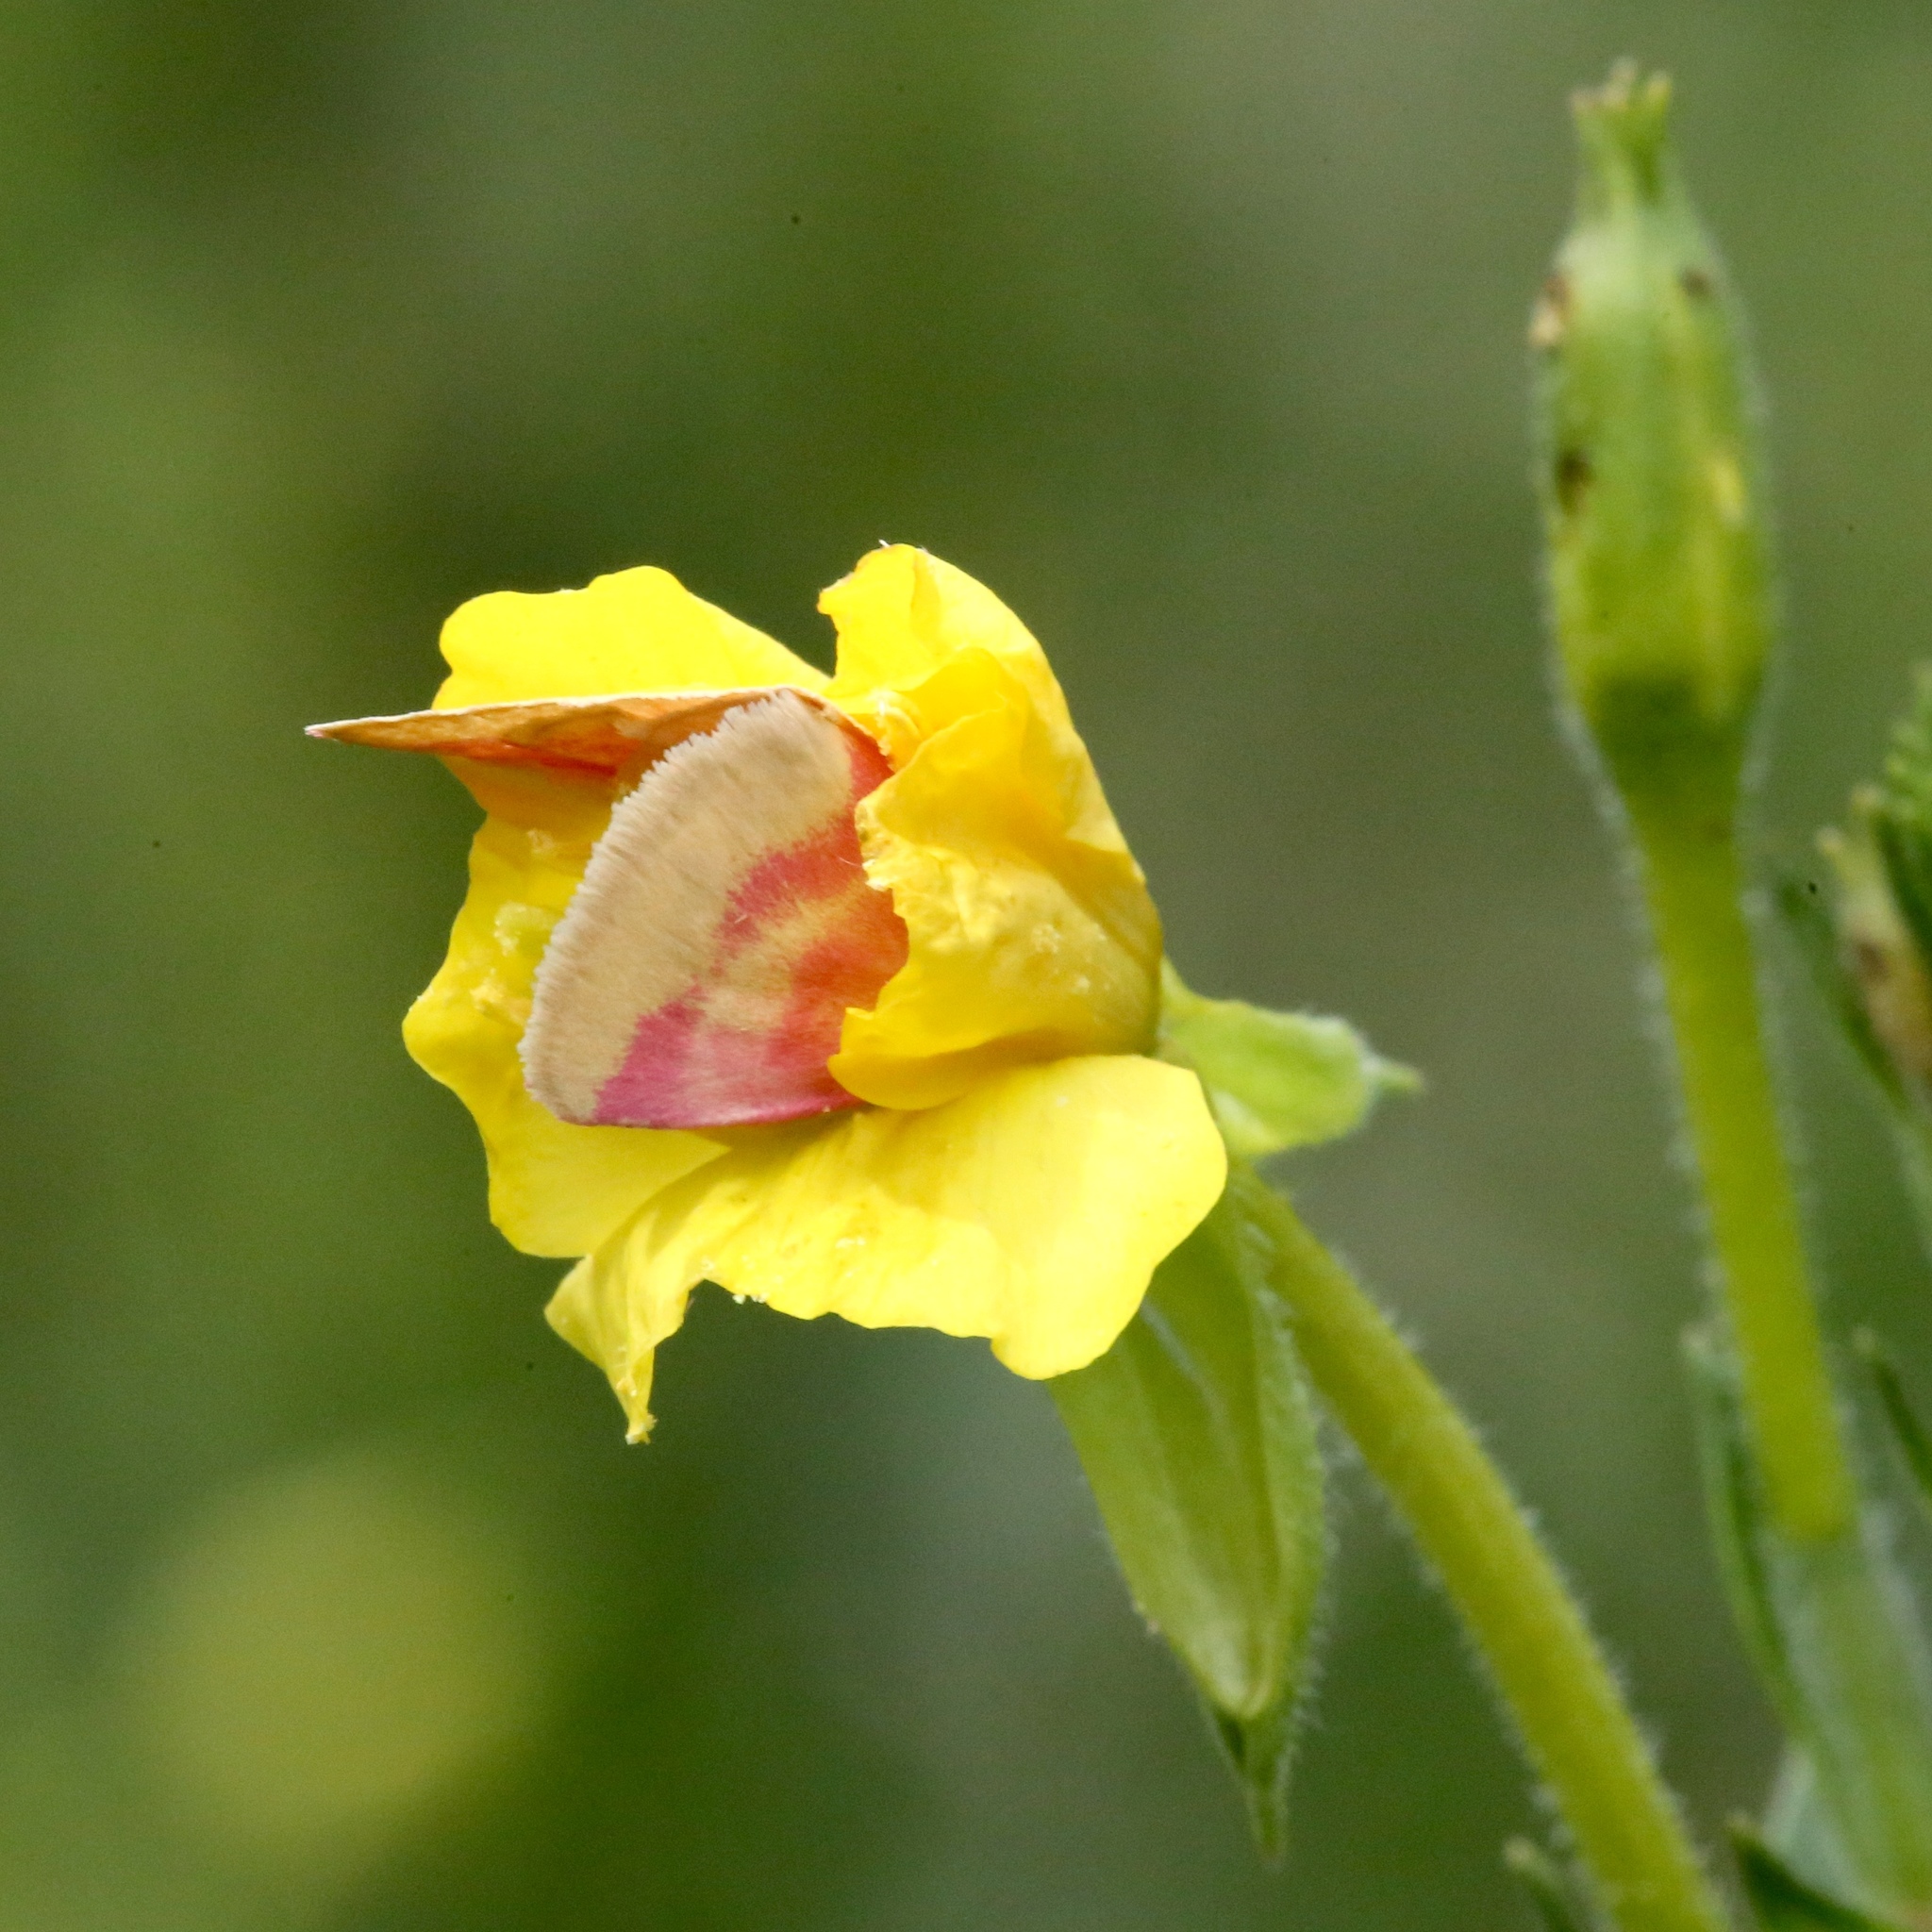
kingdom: Animalia
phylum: Arthropoda
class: Insecta
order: Lepidoptera
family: Noctuidae
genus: Schinia
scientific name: Schinia florida
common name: Primrose moth
